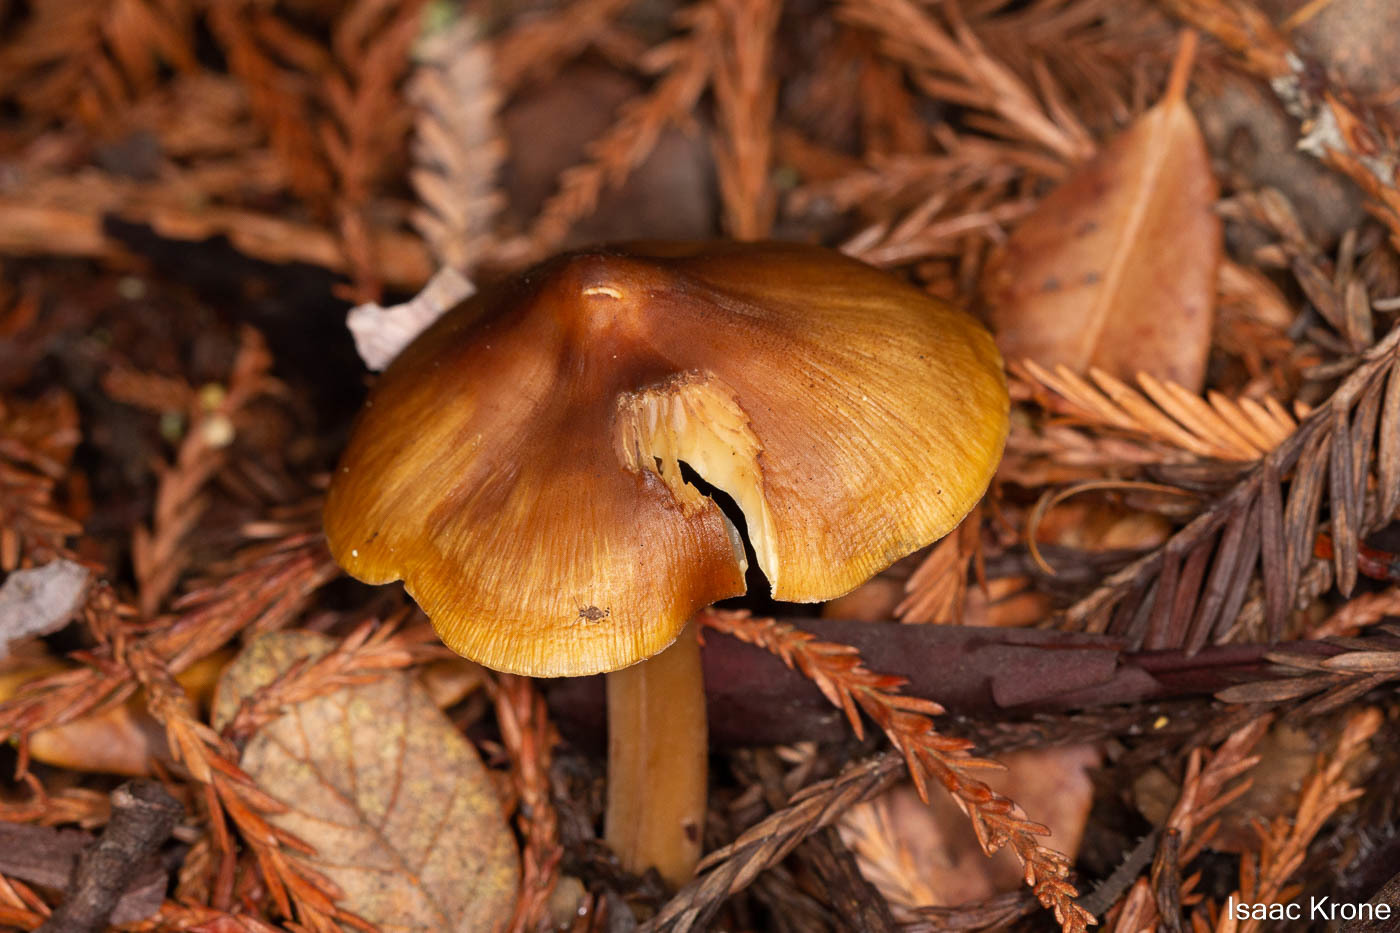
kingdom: Fungi
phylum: Basidiomycota
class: Agaricomycetes
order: Agaricales
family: Tricholomataceae
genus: Caulorhiza
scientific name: Caulorhiza umbonata
